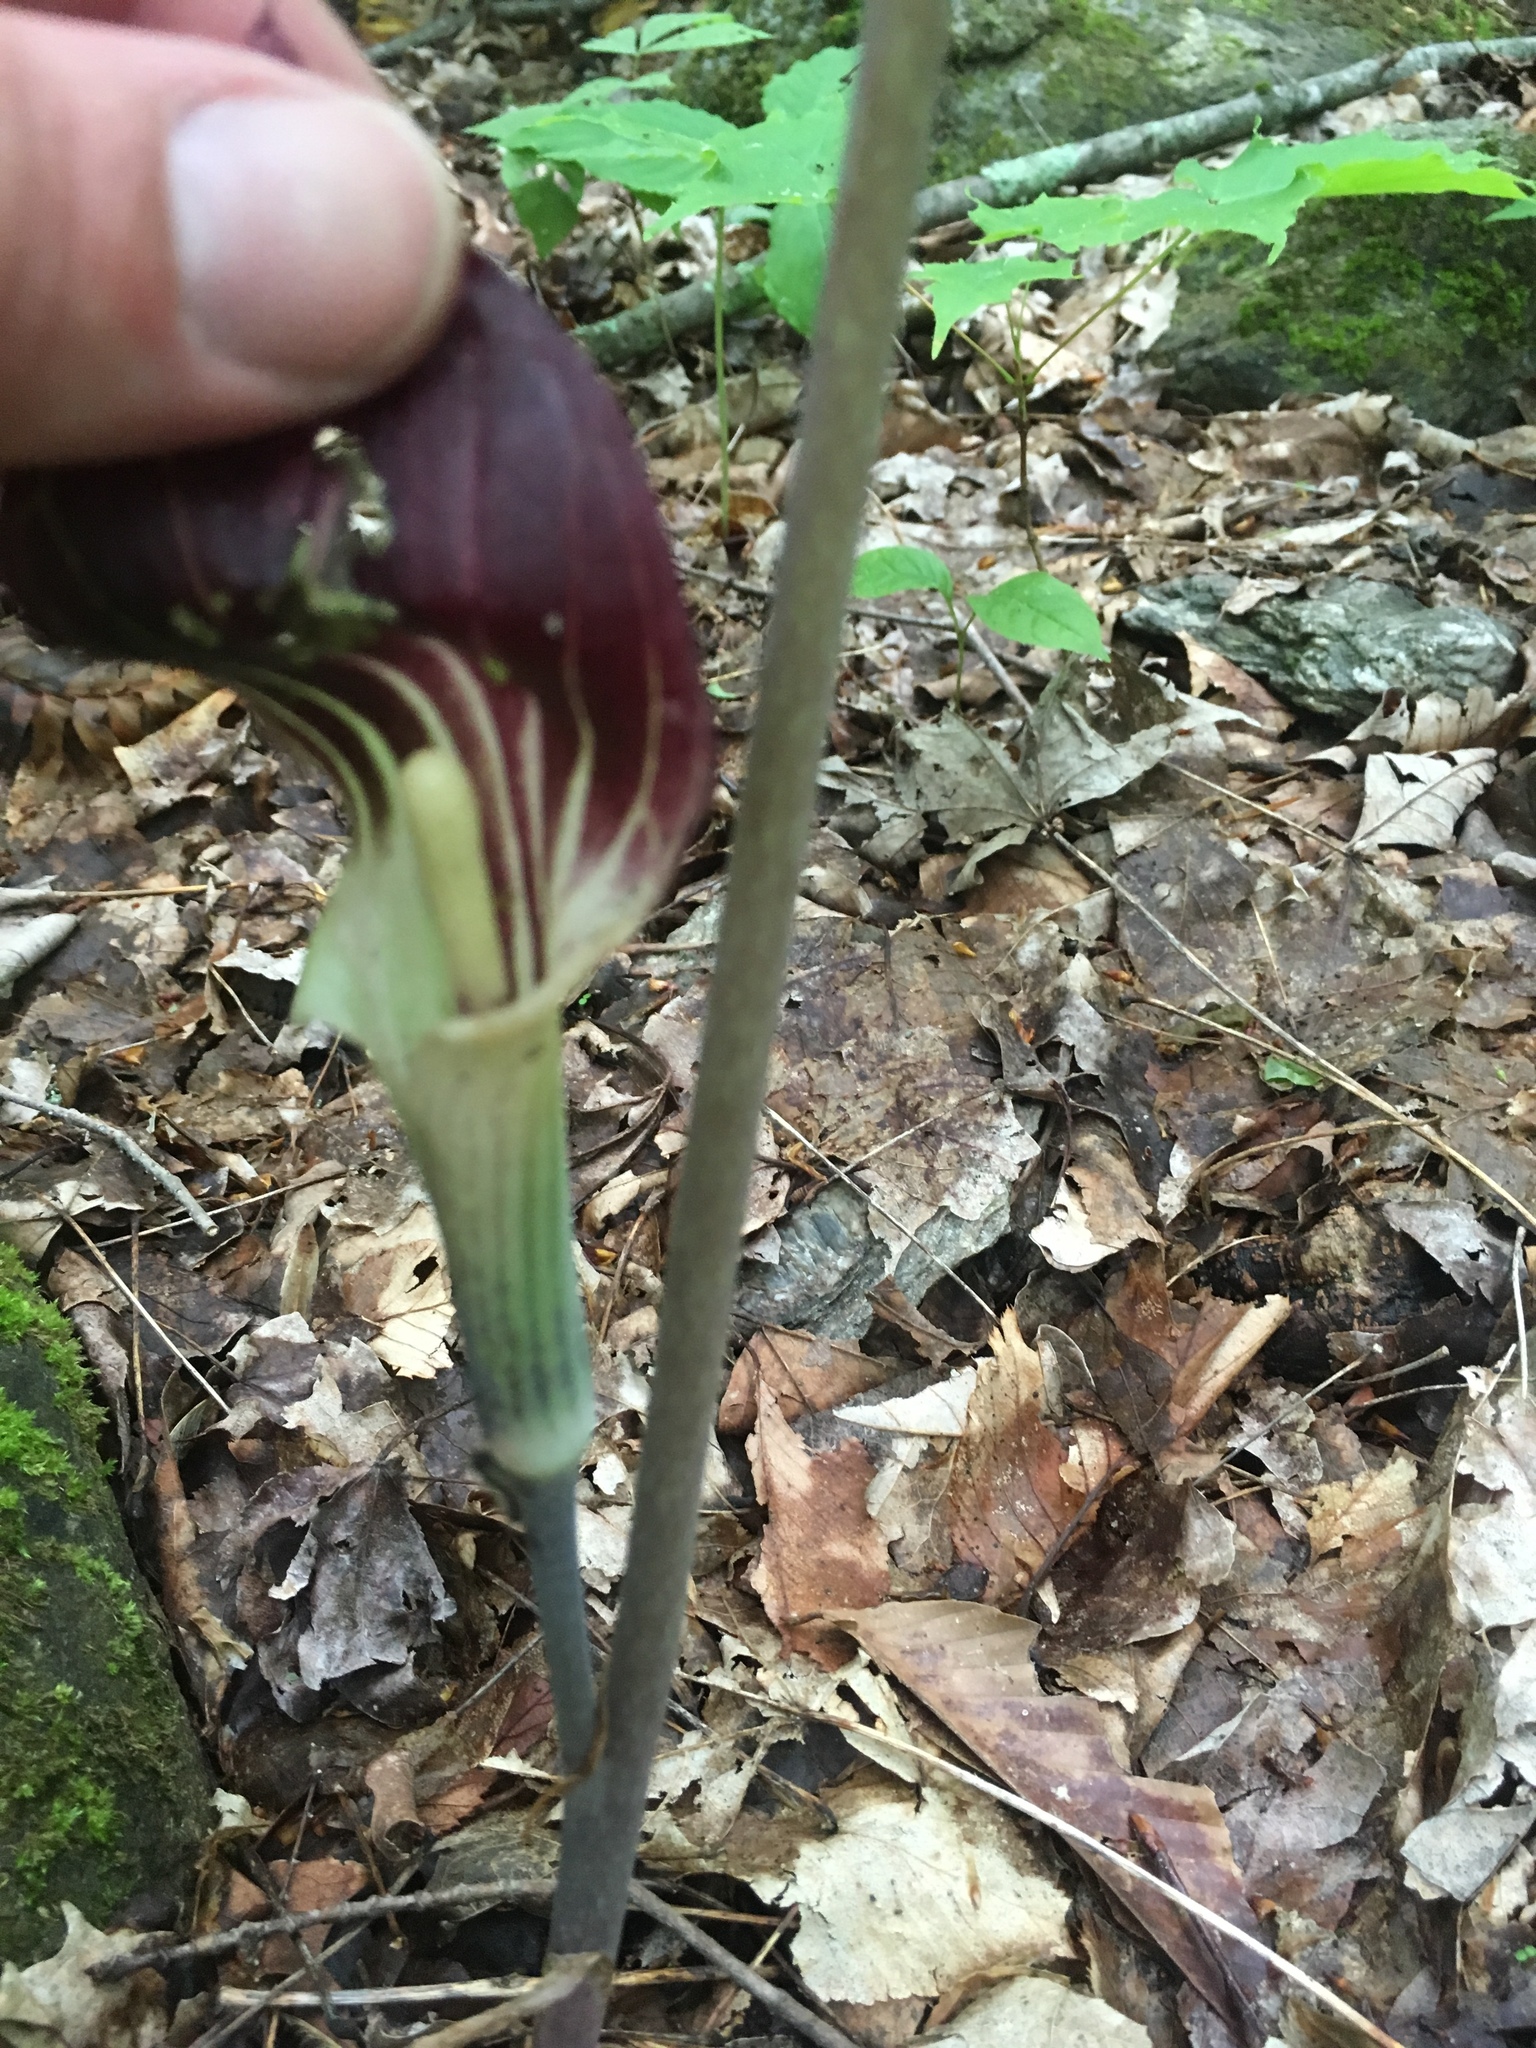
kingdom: Plantae
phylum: Tracheophyta
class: Liliopsida
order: Alismatales
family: Araceae
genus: Arisaema
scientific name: Arisaema triphyllum
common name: Jack-in-the-pulpit
